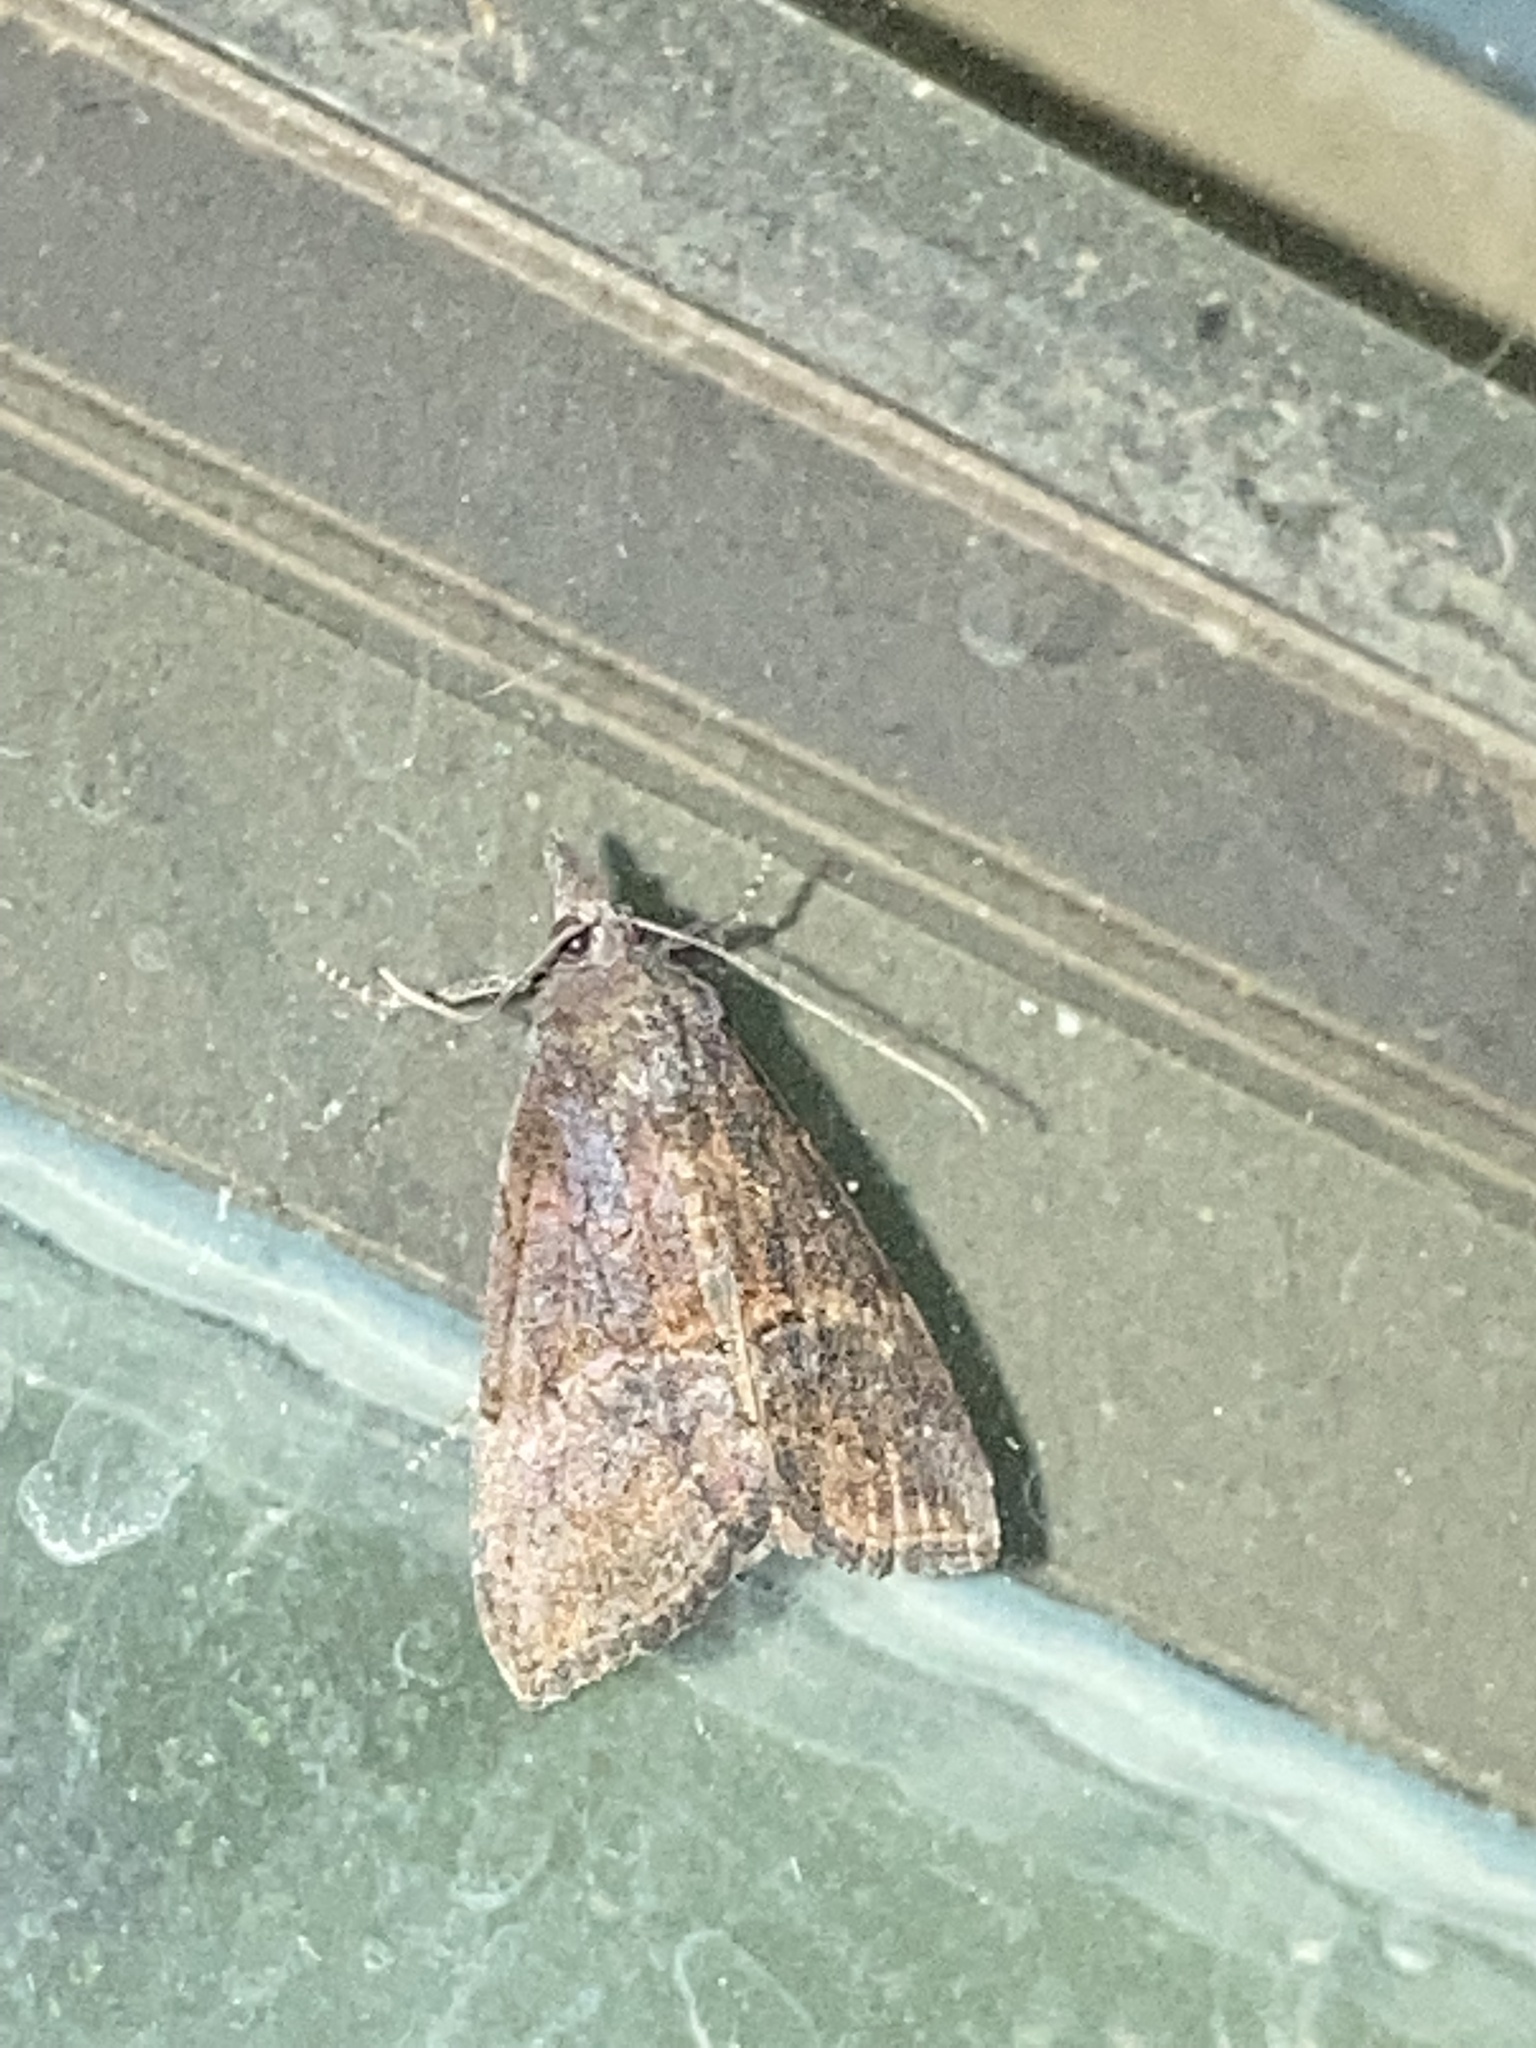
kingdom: Animalia
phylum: Arthropoda
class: Insecta
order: Lepidoptera
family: Erebidae
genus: Hypena
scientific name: Hypena scabra
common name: Green cloverworm
